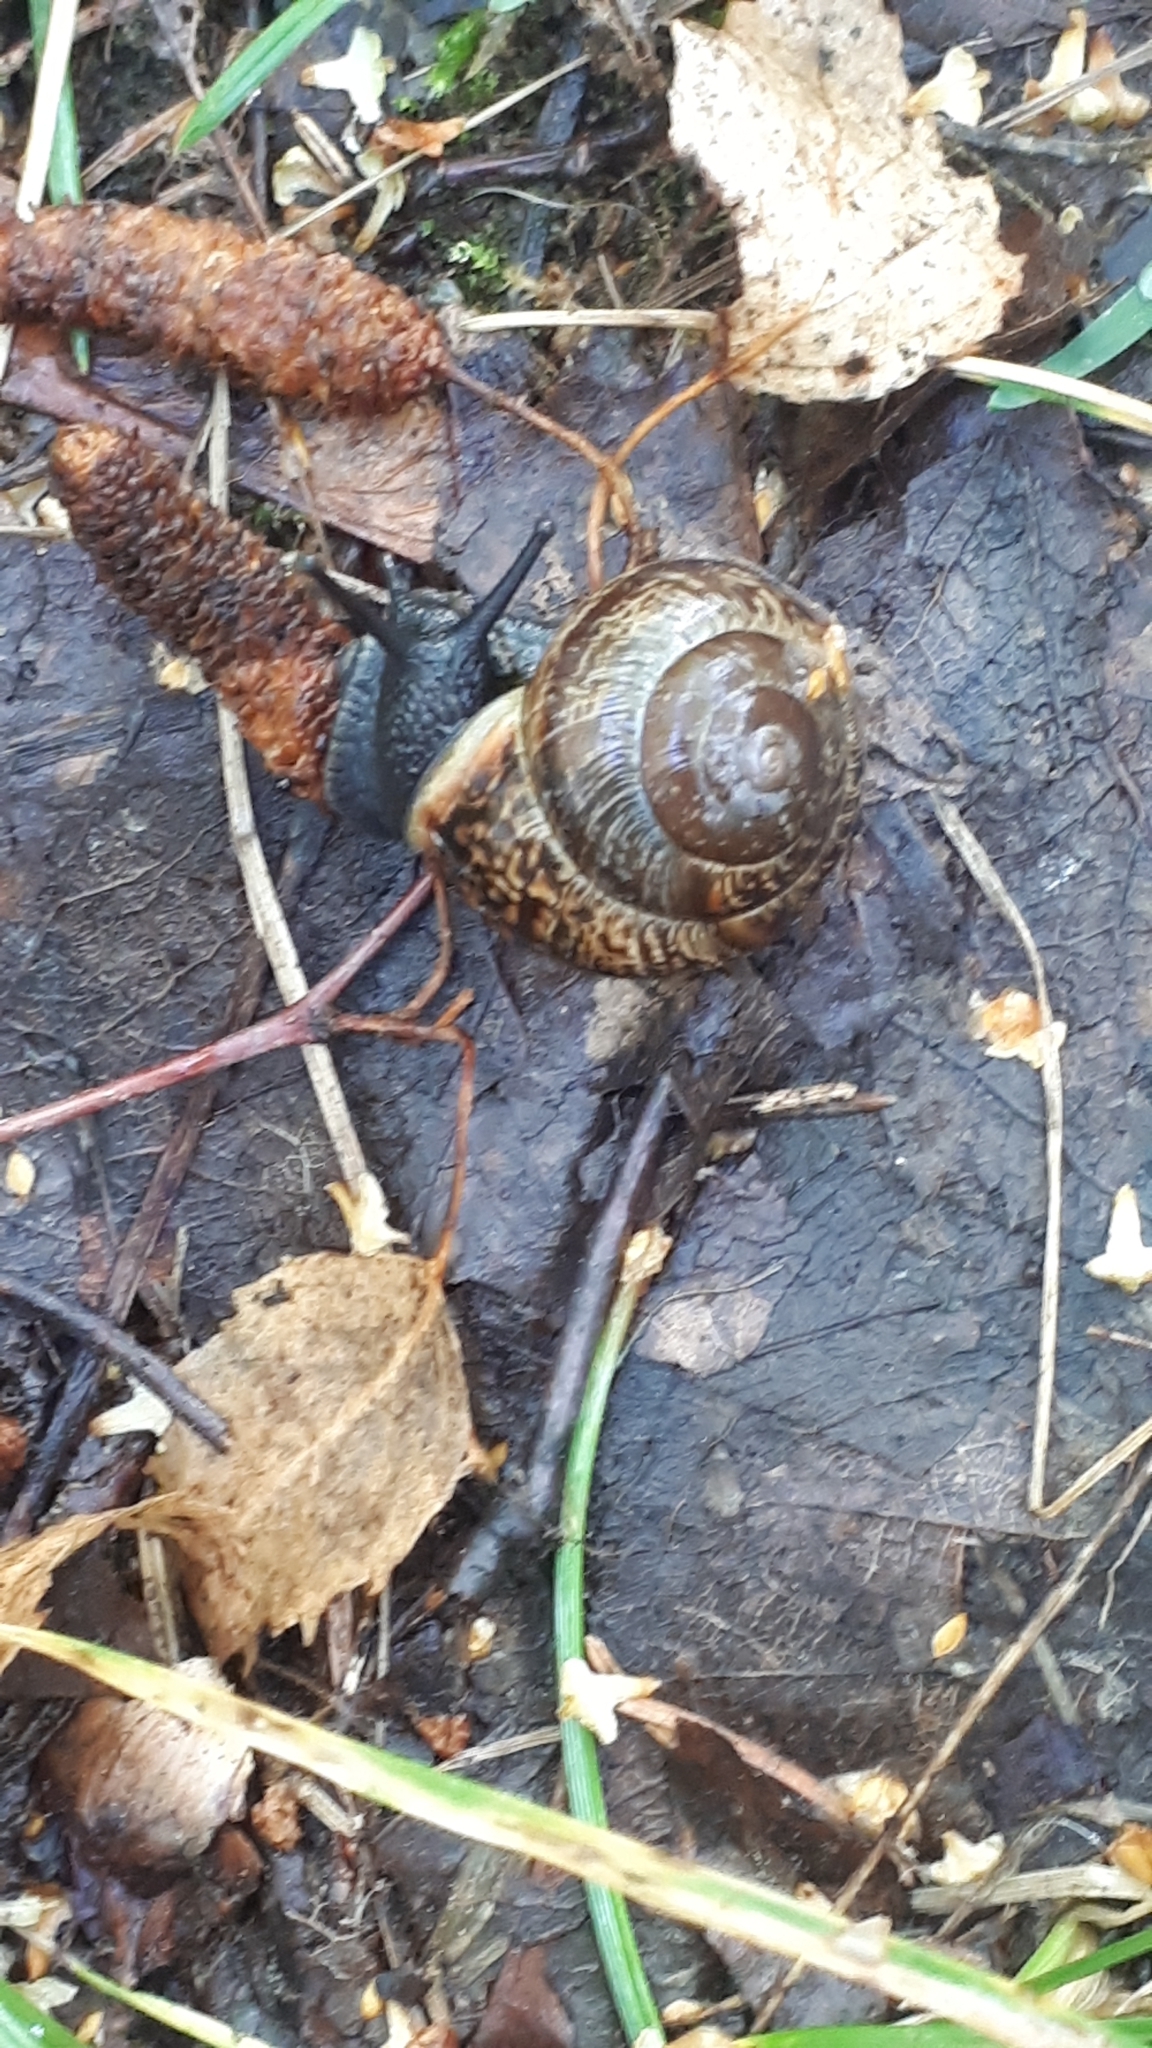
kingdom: Animalia
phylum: Mollusca
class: Gastropoda
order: Stylommatophora
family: Helicidae
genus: Arianta
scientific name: Arianta arbustorum
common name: Copse snail
